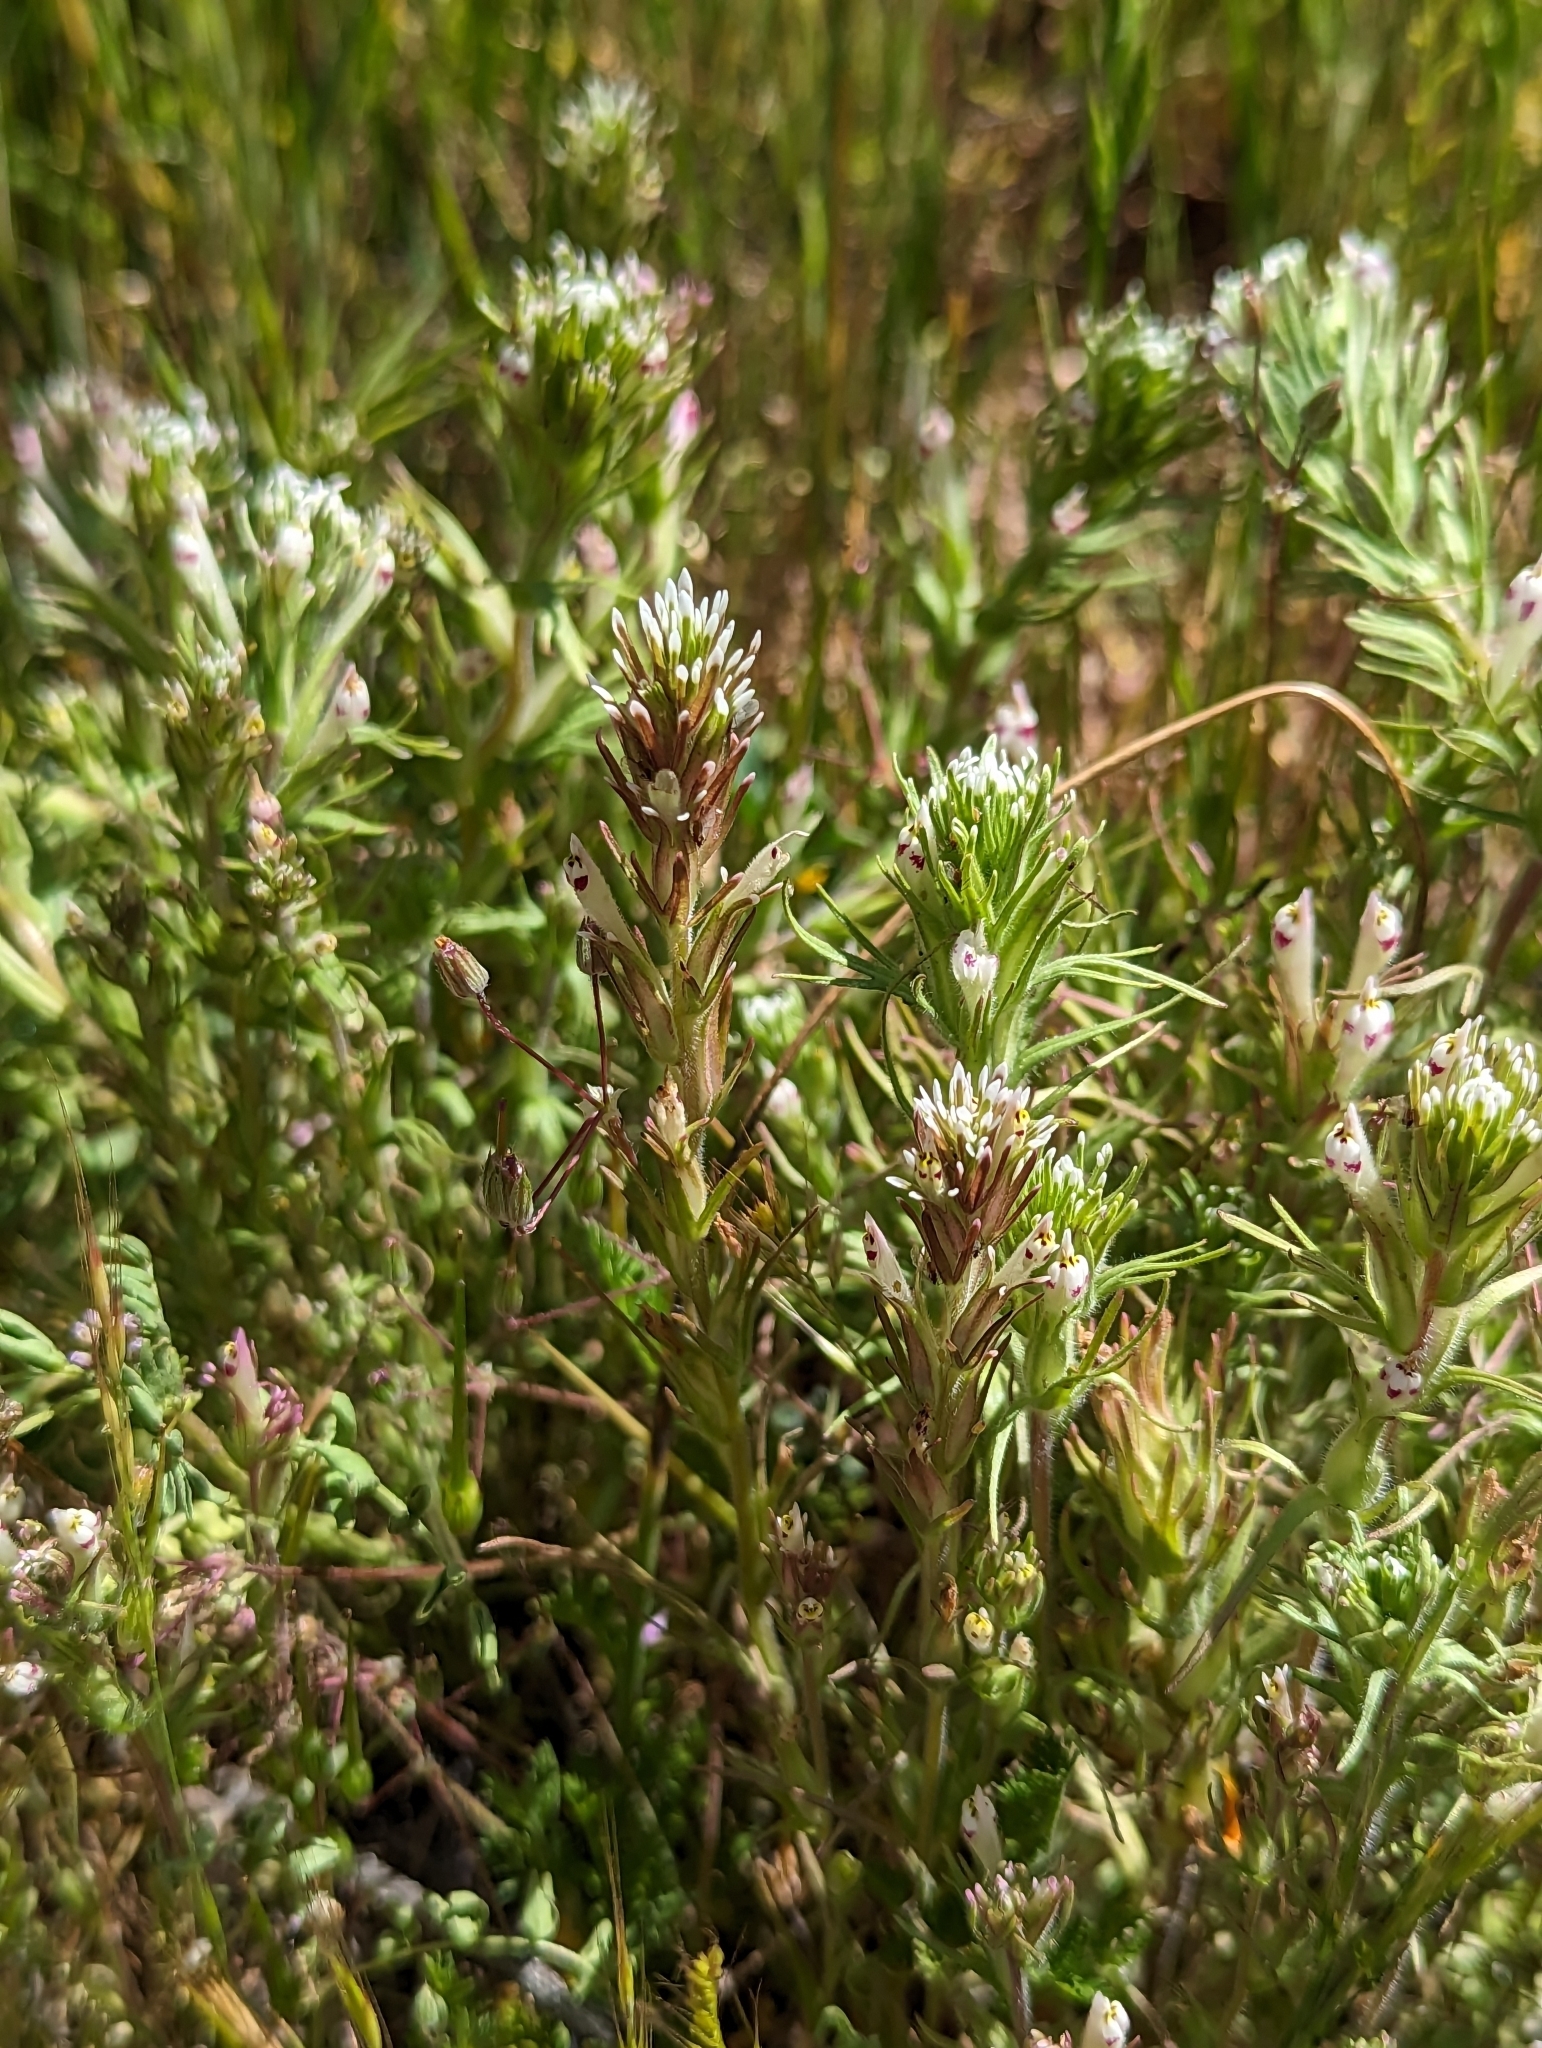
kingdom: Plantae
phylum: Tracheophyta
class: Magnoliopsida
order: Lamiales
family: Orobanchaceae
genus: Castilleja
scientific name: Castilleja brevistyla
